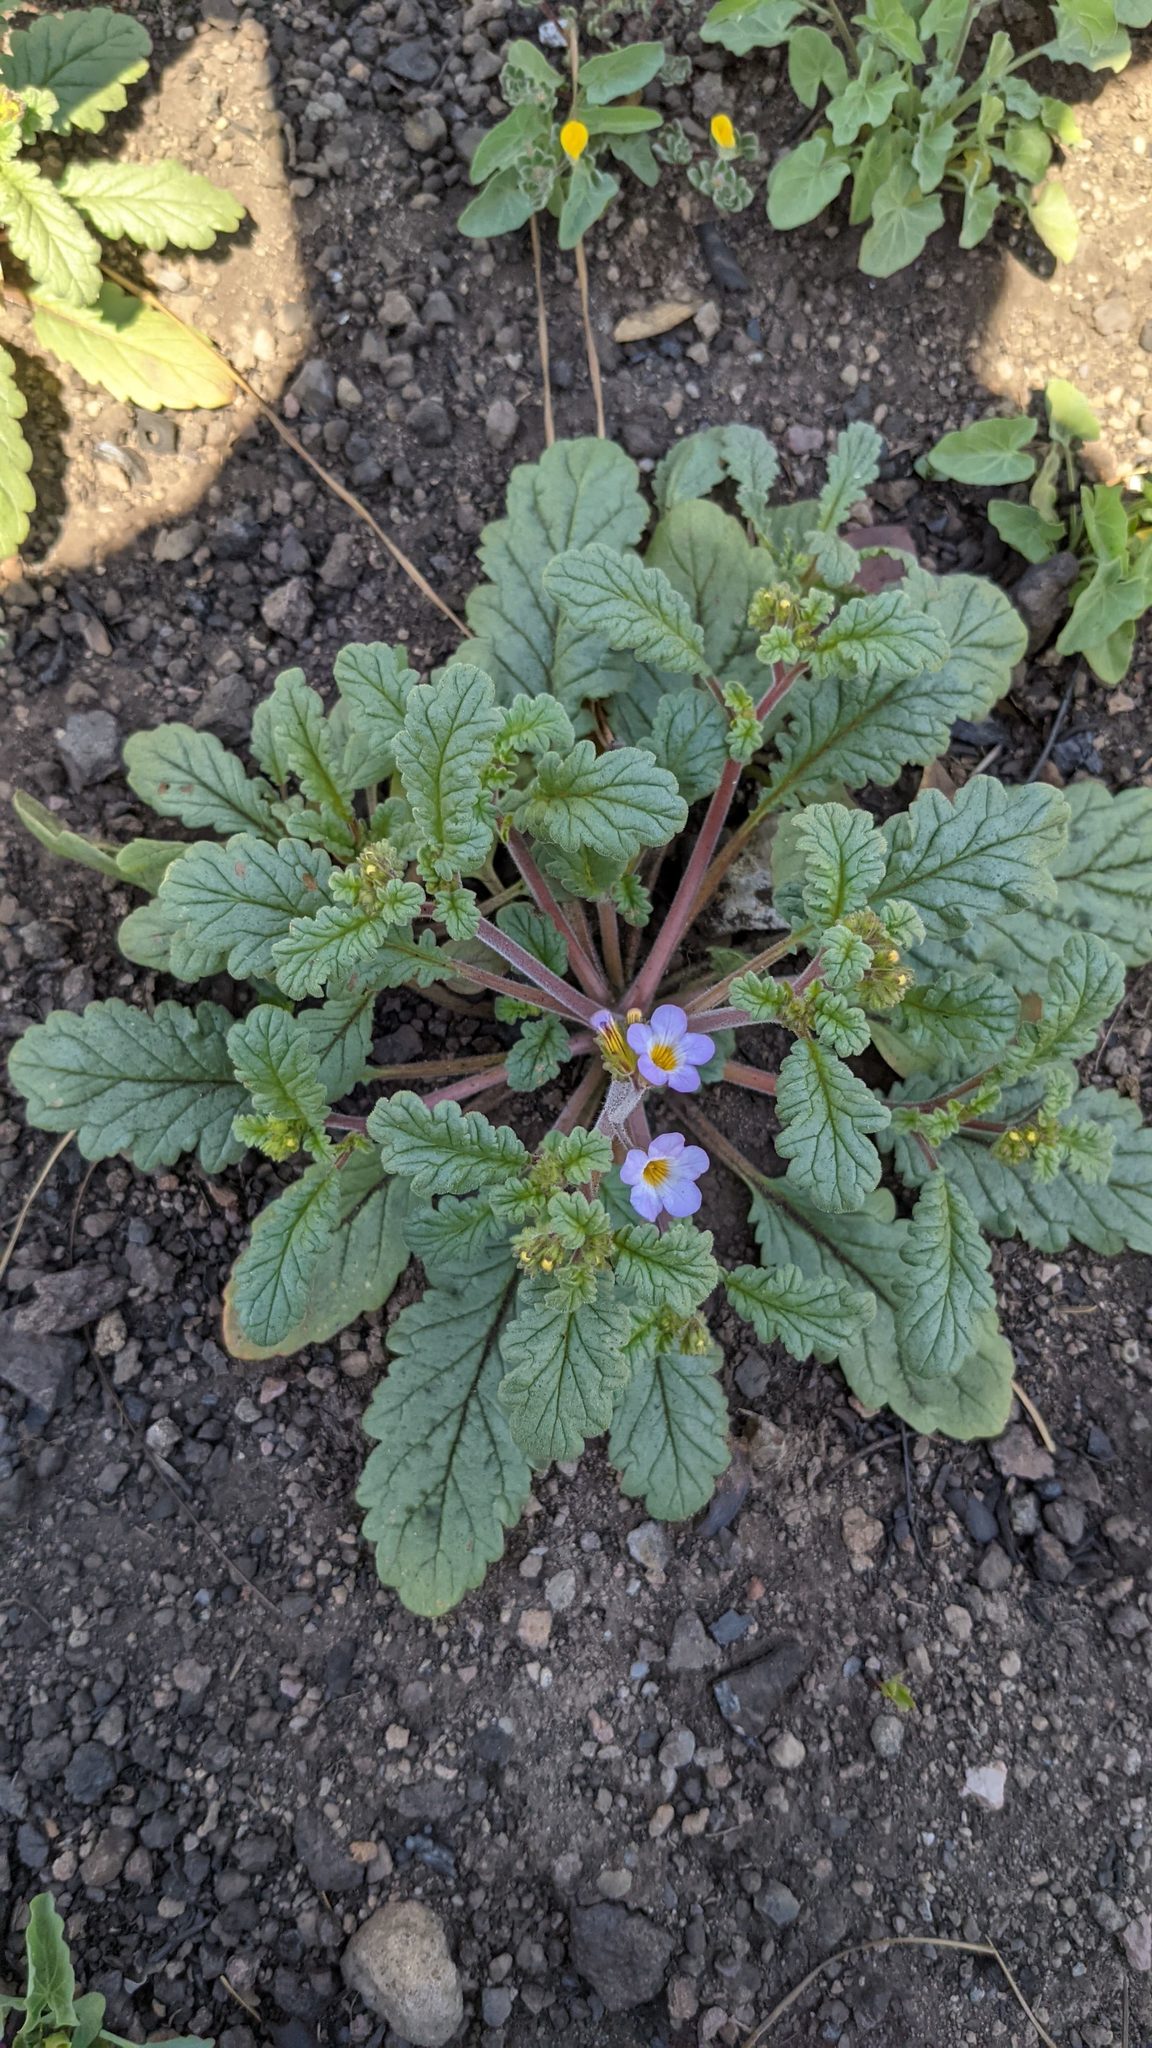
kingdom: Plantae
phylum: Tracheophyta
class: Magnoliopsida
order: Boraginales
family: Hydrophyllaceae
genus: Phacelia
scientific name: Phacelia suaveolens
